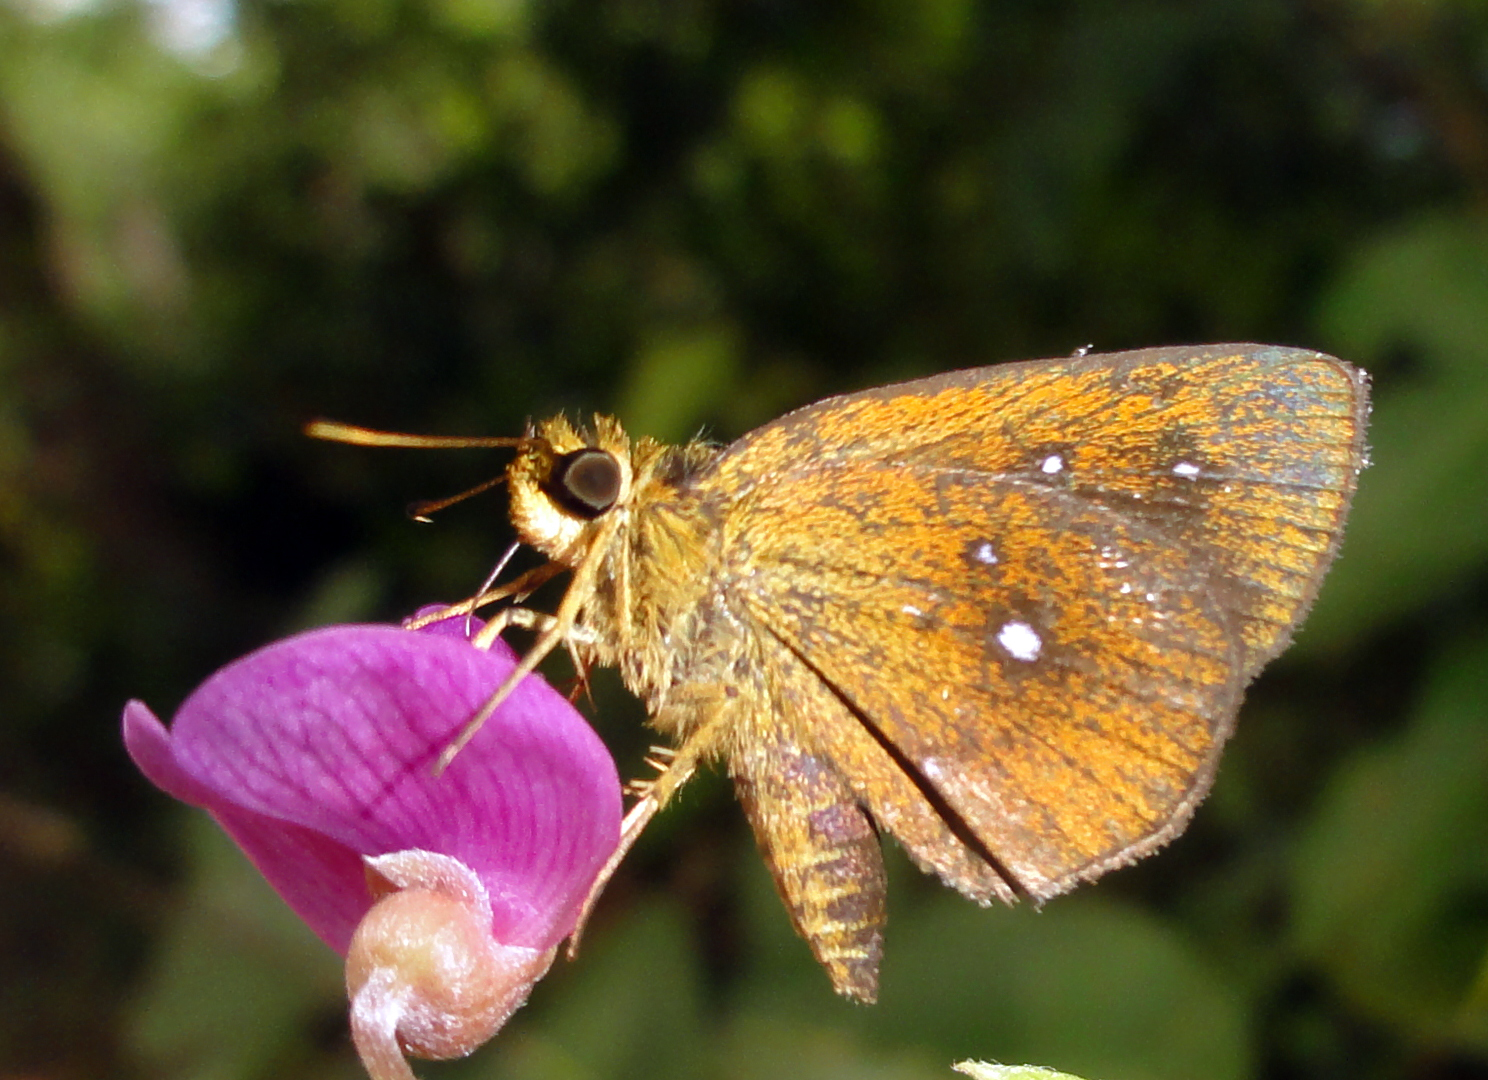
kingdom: Animalia
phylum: Arthropoda
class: Insecta
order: Lepidoptera
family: Hesperiidae
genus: Iambrix
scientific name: Iambrix salsala
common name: Chestnut bob
